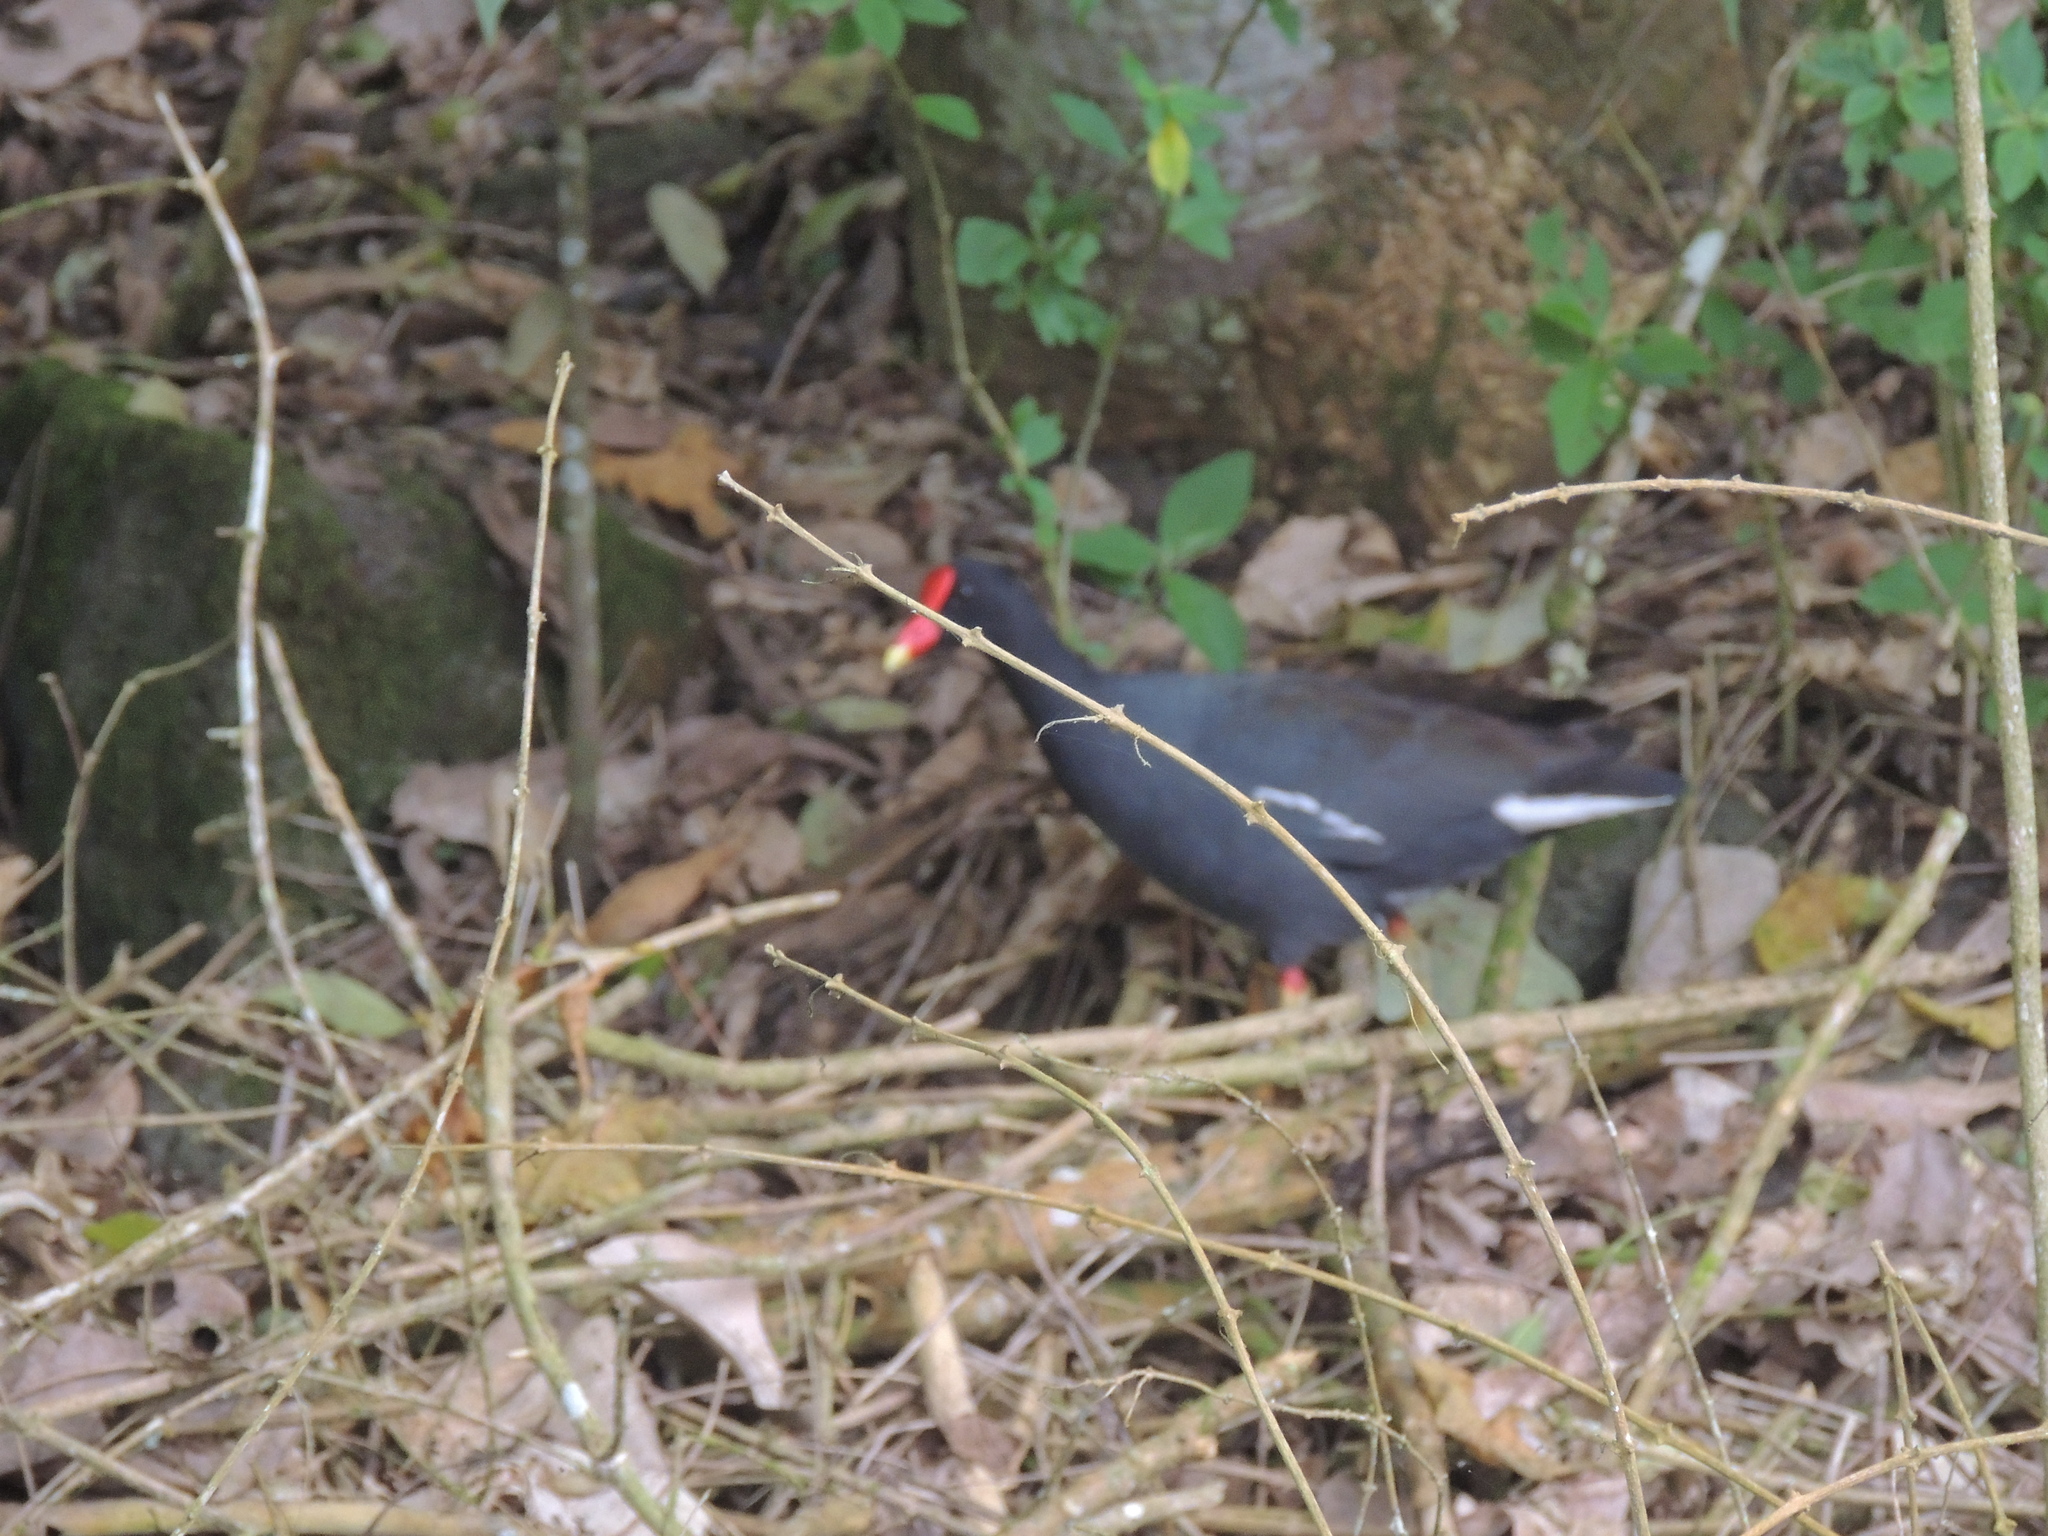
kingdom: Animalia
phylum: Chordata
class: Aves
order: Gruiformes
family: Rallidae
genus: Gallinula
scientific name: Gallinula chloropus
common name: Common moorhen
